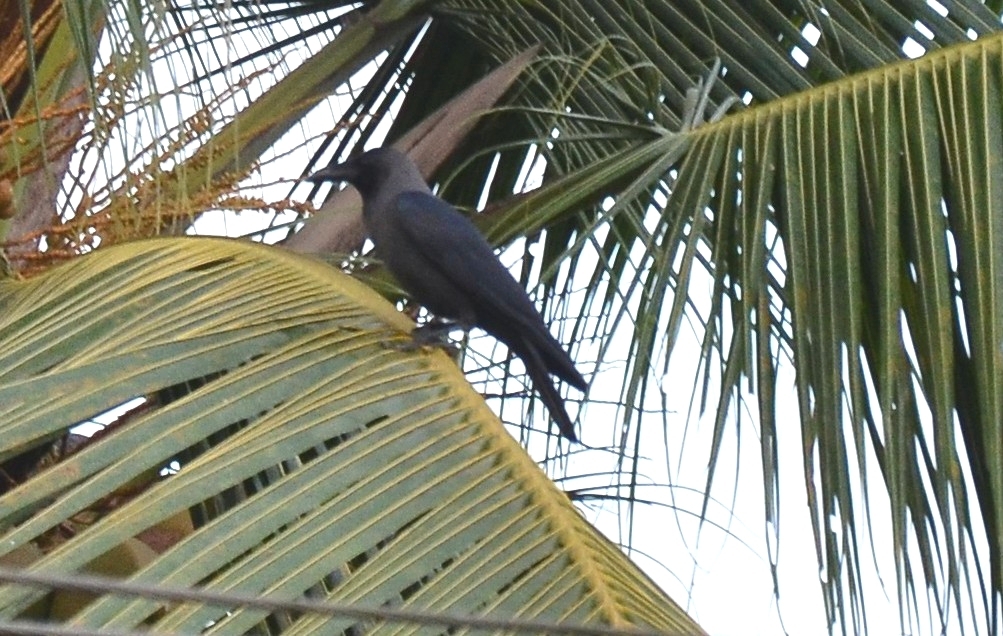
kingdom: Animalia
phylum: Chordata
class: Aves
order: Passeriformes
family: Corvidae
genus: Corvus
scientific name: Corvus splendens
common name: House crow
